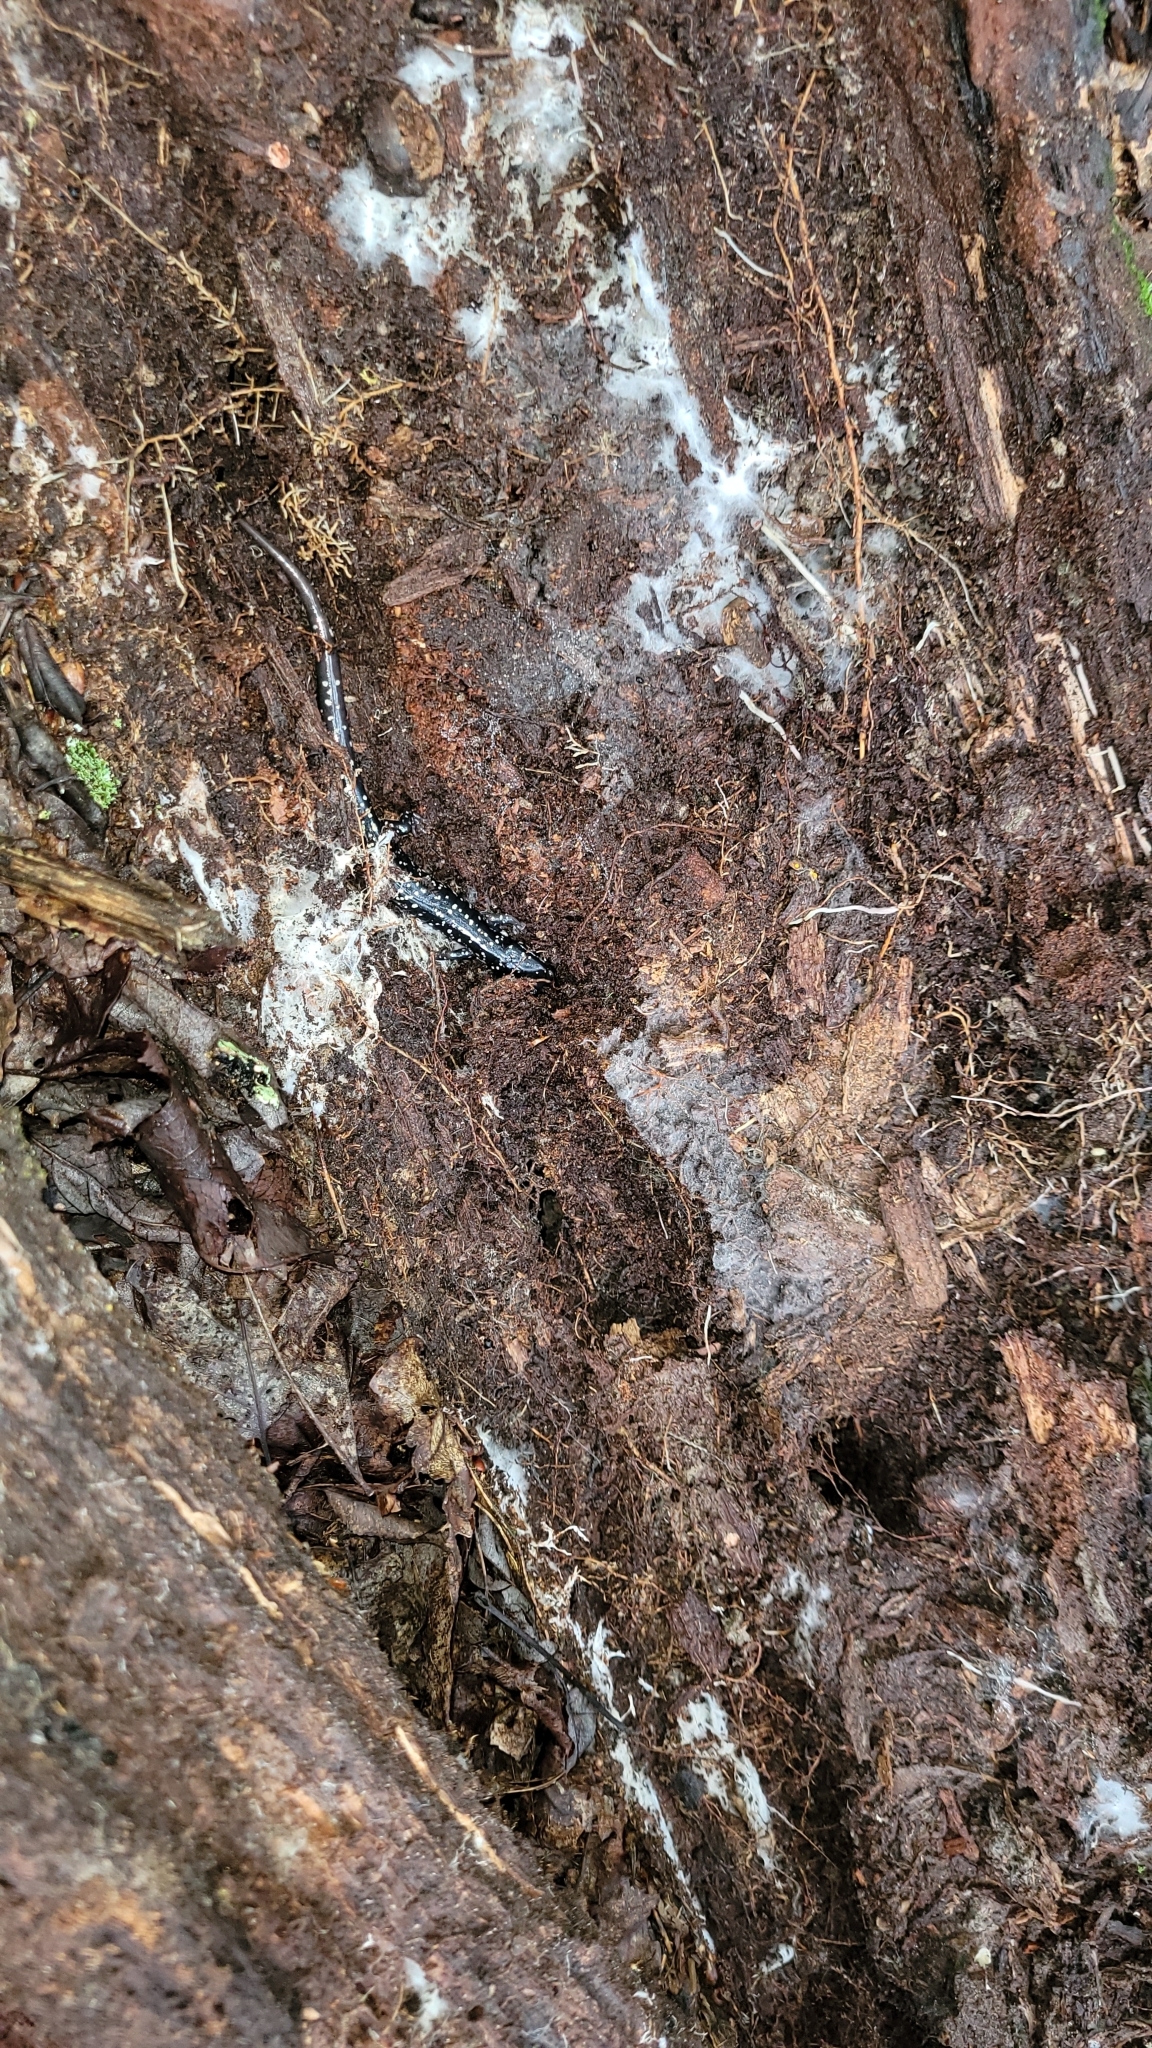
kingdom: Animalia
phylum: Chordata
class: Amphibia
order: Caudata
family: Plethodontidae
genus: Plethodon
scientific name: Plethodon glutinosus
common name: Northern slimy salamander
